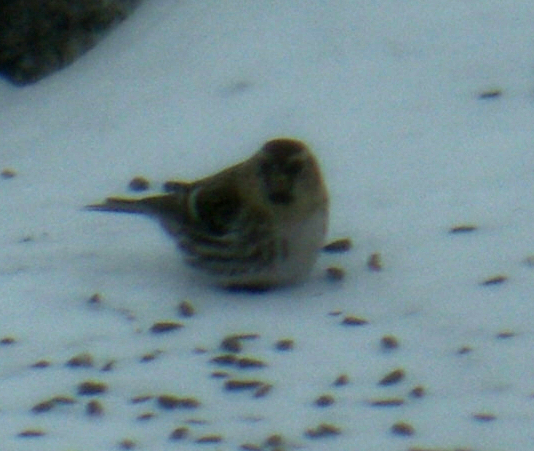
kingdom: Animalia
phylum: Chordata
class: Aves
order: Passeriformes
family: Fringillidae
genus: Acanthis
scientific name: Acanthis flammea
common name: Common redpoll
